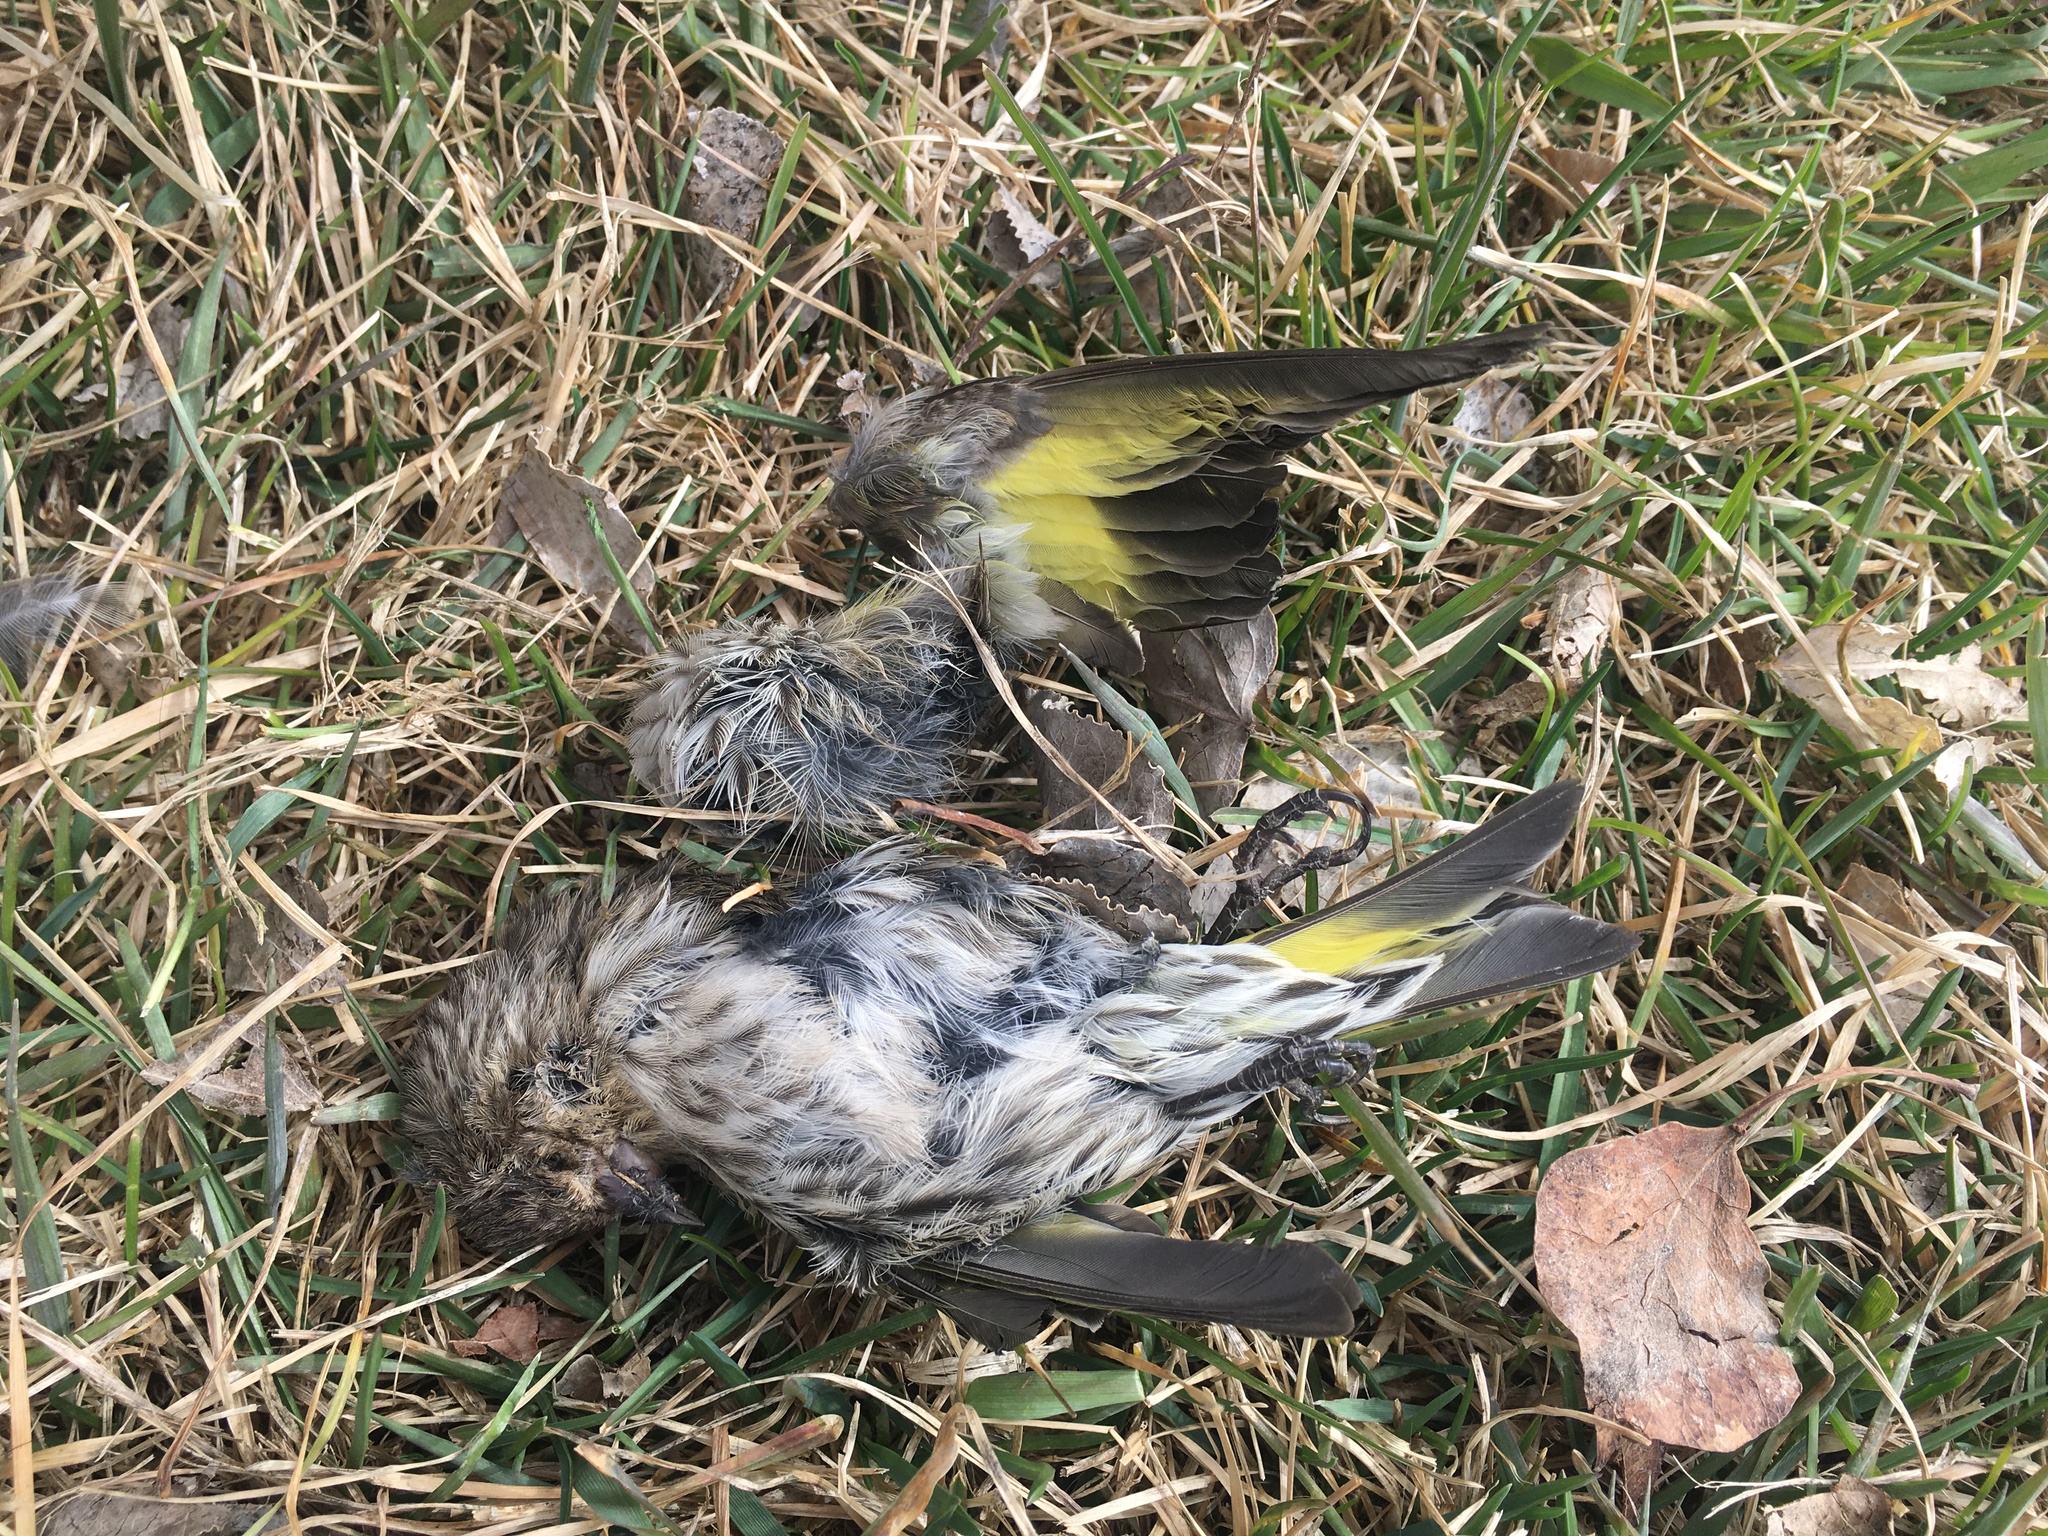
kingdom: Animalia
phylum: Chordata
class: Aves
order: Passeriformes
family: Fringillidae
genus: Spinus
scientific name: Spinus pinus
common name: Pine siskin
